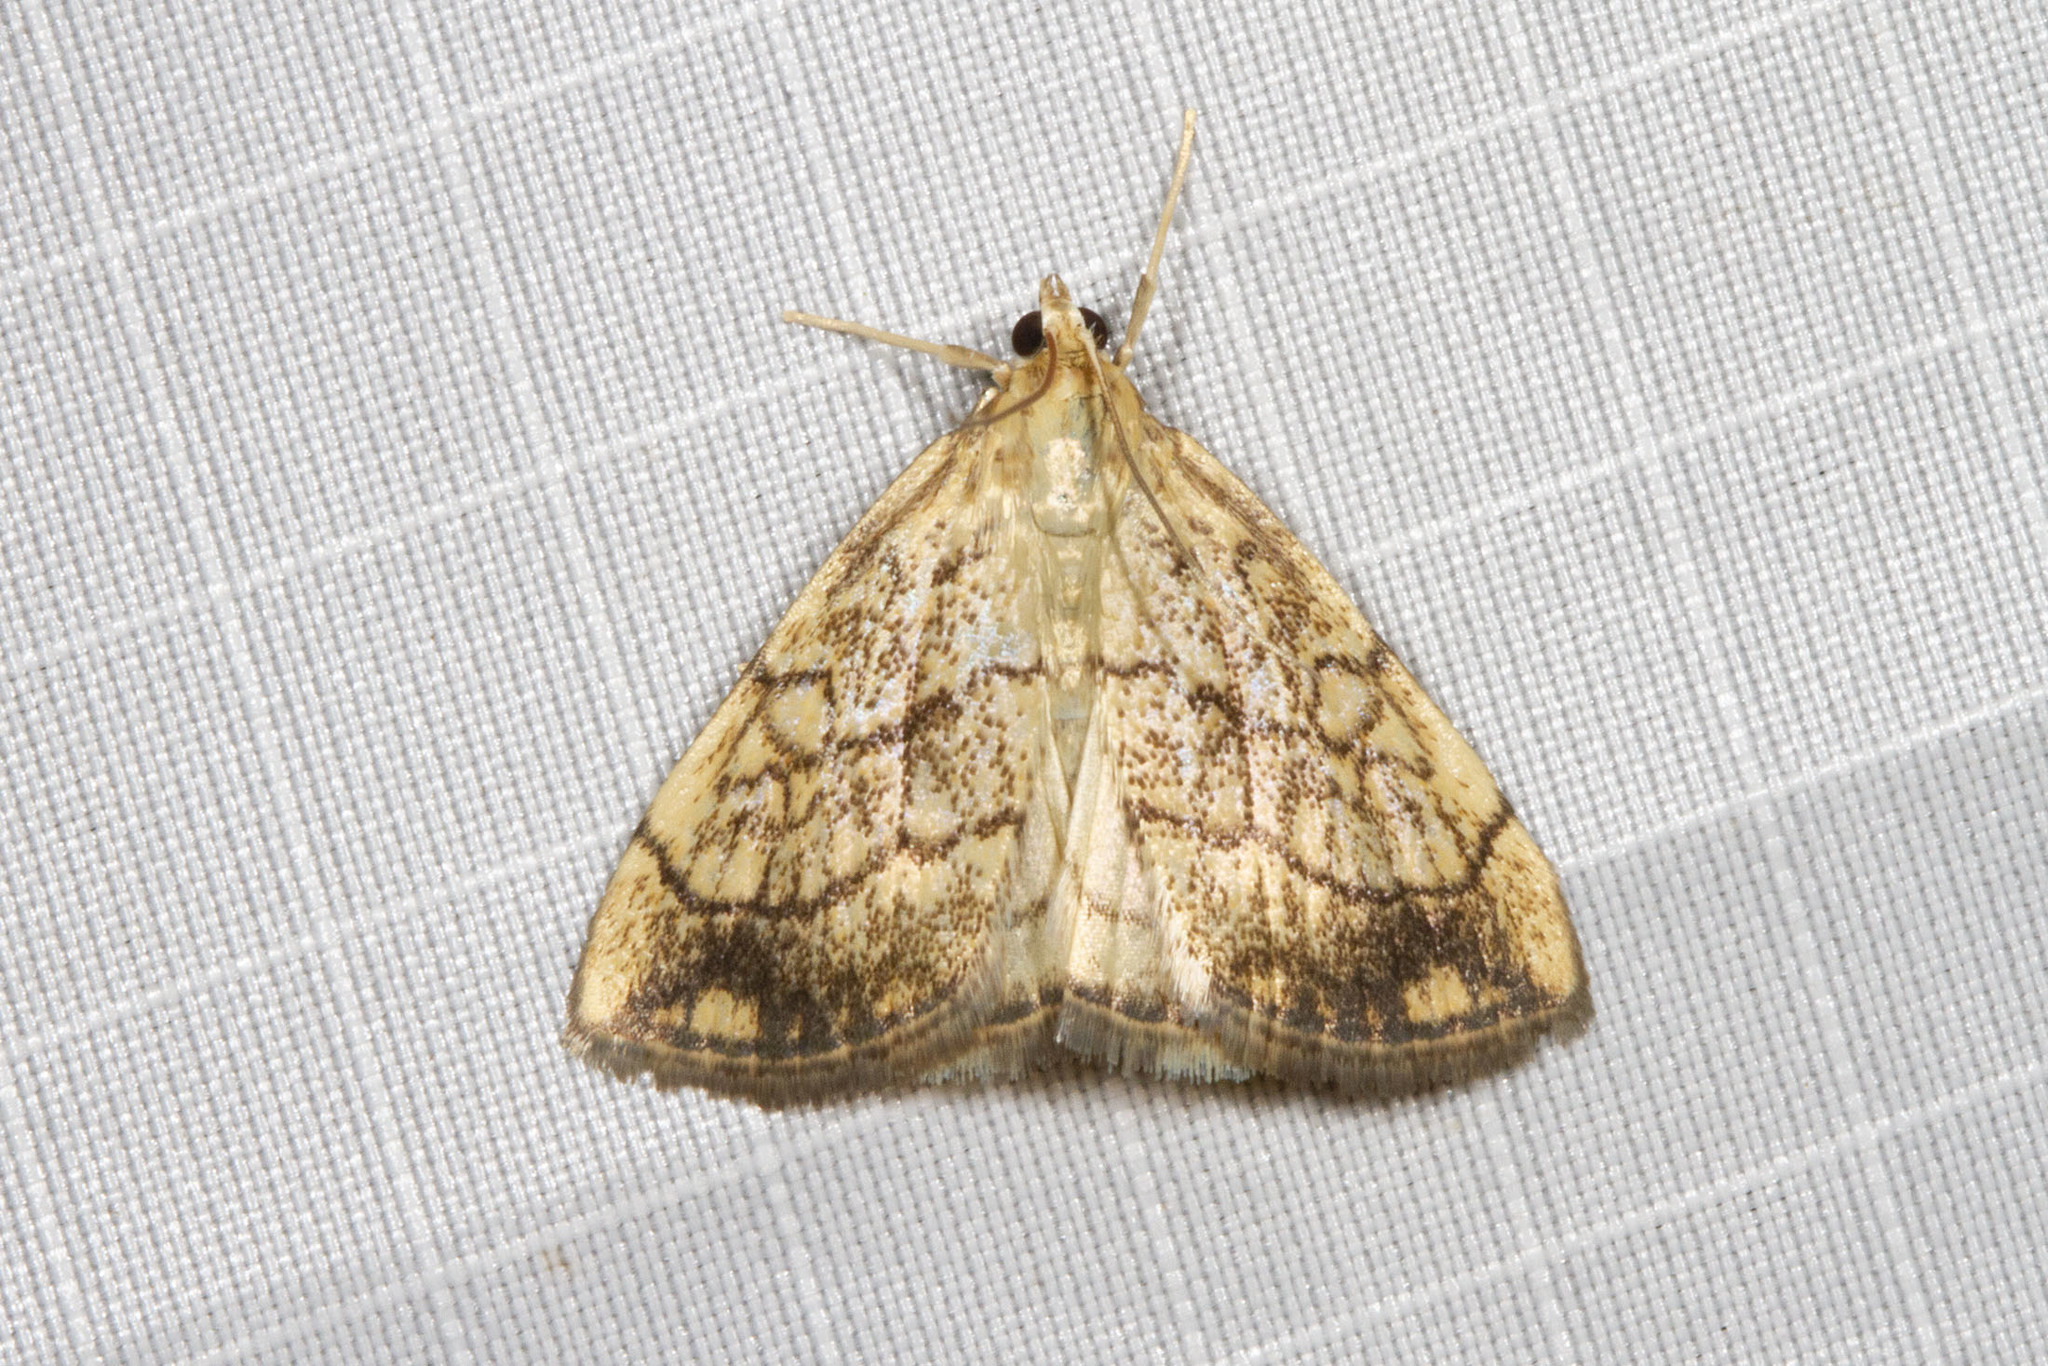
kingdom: Animalia
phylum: Arthropoda
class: Insecta
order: Lepidoptera
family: Crambidae
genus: Evergestis
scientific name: Evergestis pallidata
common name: Chequered pearl
